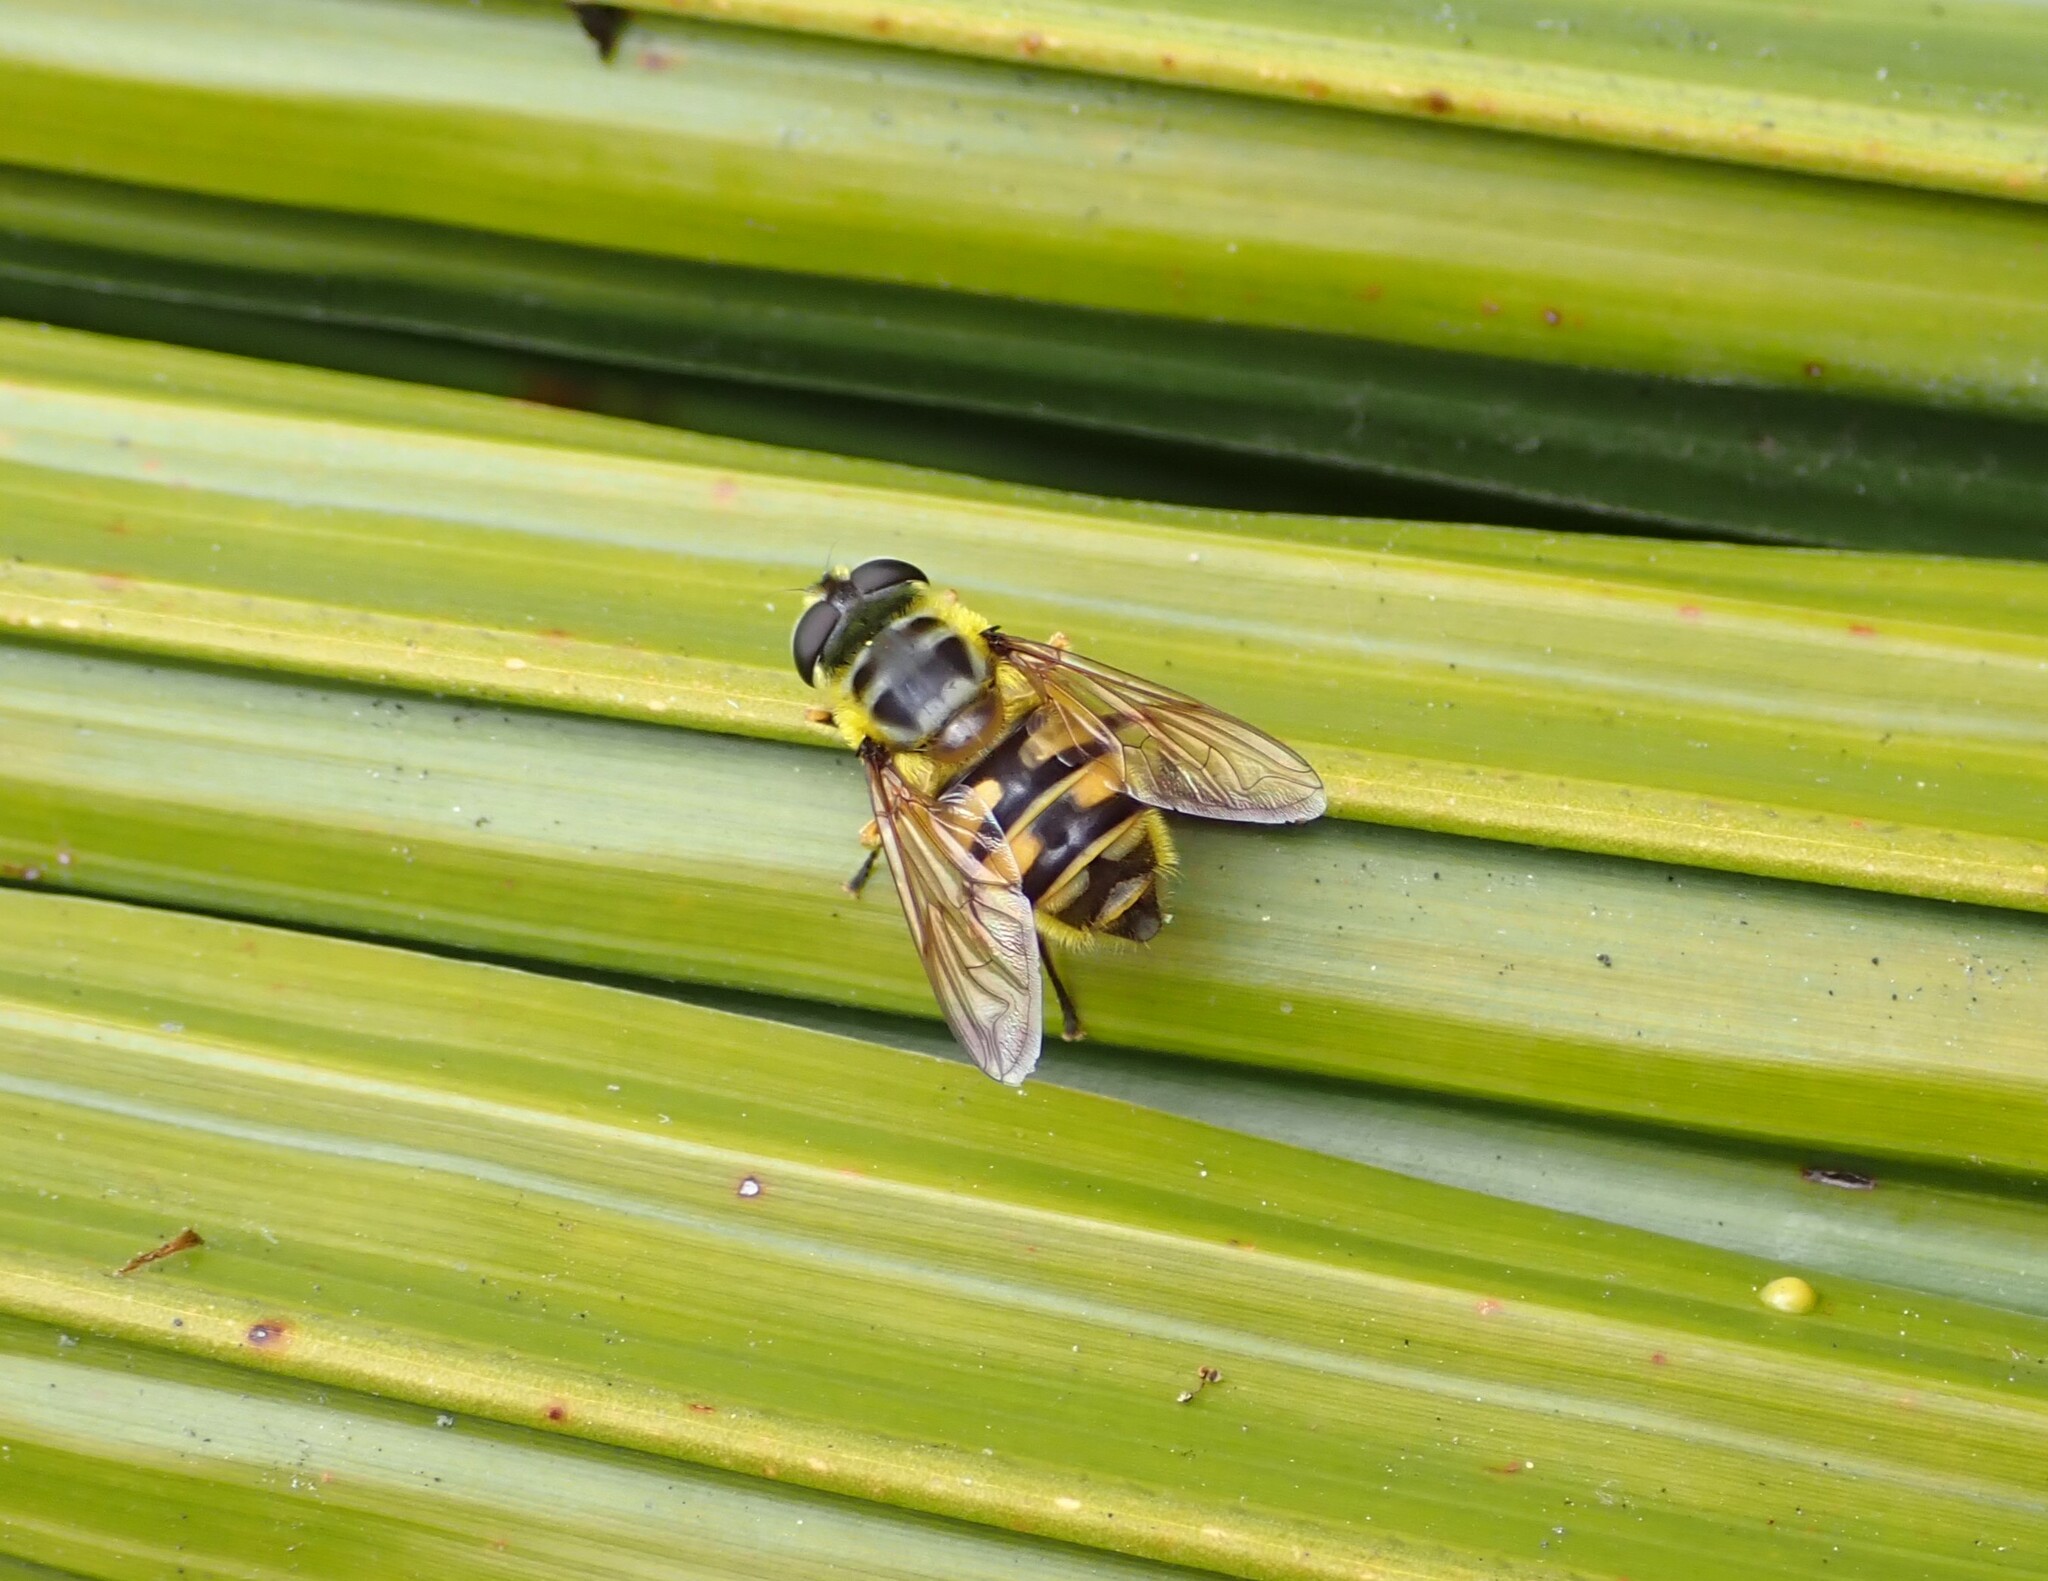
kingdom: Animalia
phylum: Arthropoda
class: Insecta
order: Diptera
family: Syrphidae
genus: Myathropa
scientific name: Myathropa florea
